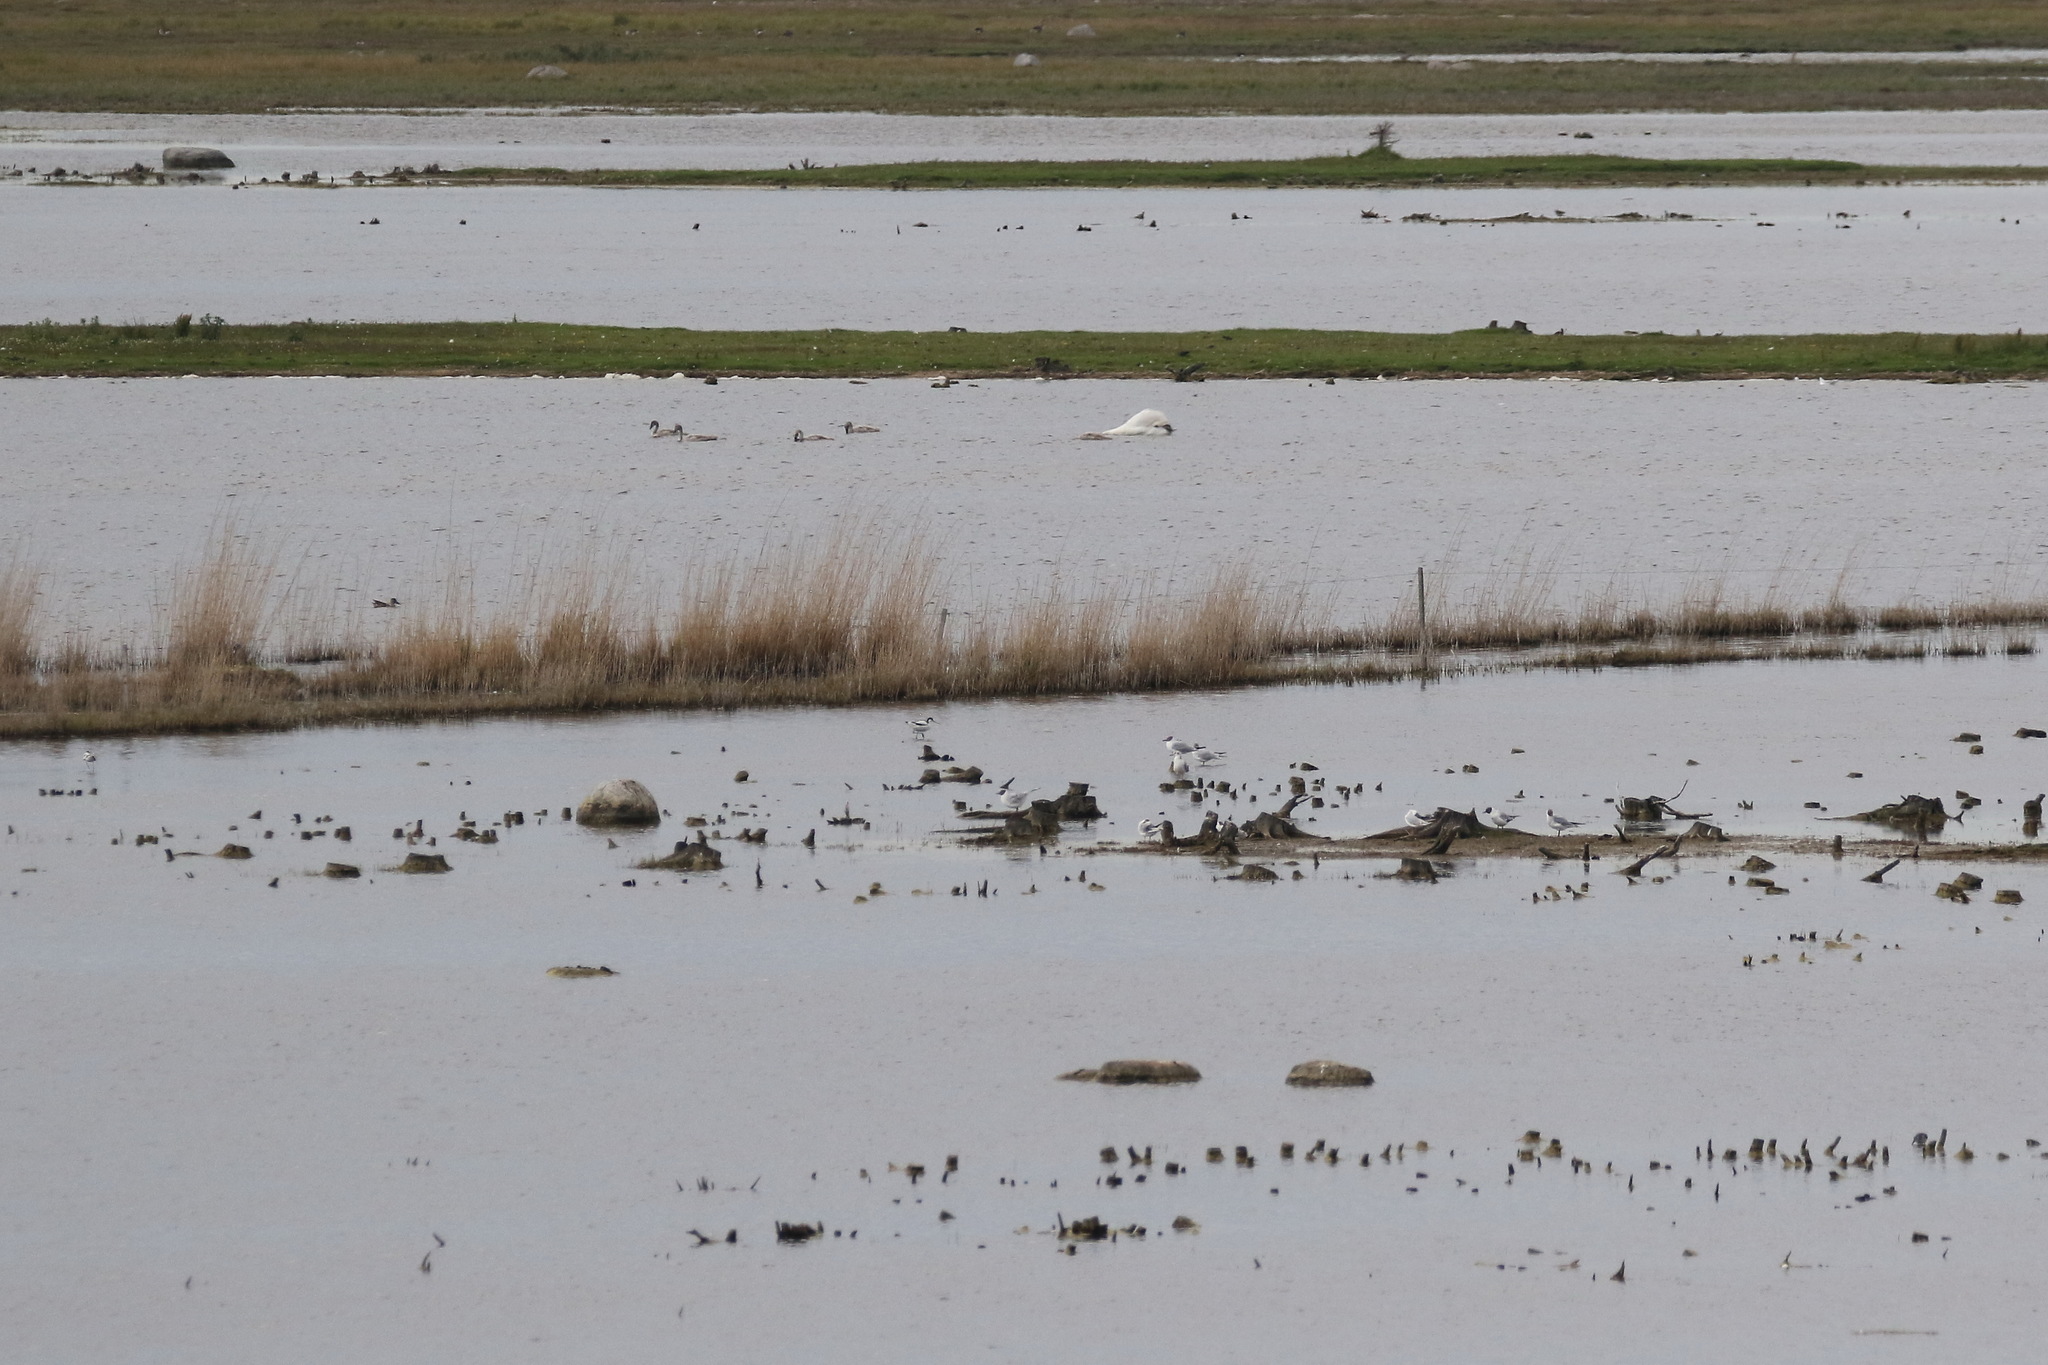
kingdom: Animalia
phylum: Chordata
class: Aves
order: Charadriiformes
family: Laridae
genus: Chroicocephalus
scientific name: Chroicocephalus ridibundus
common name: Black-headed gull
